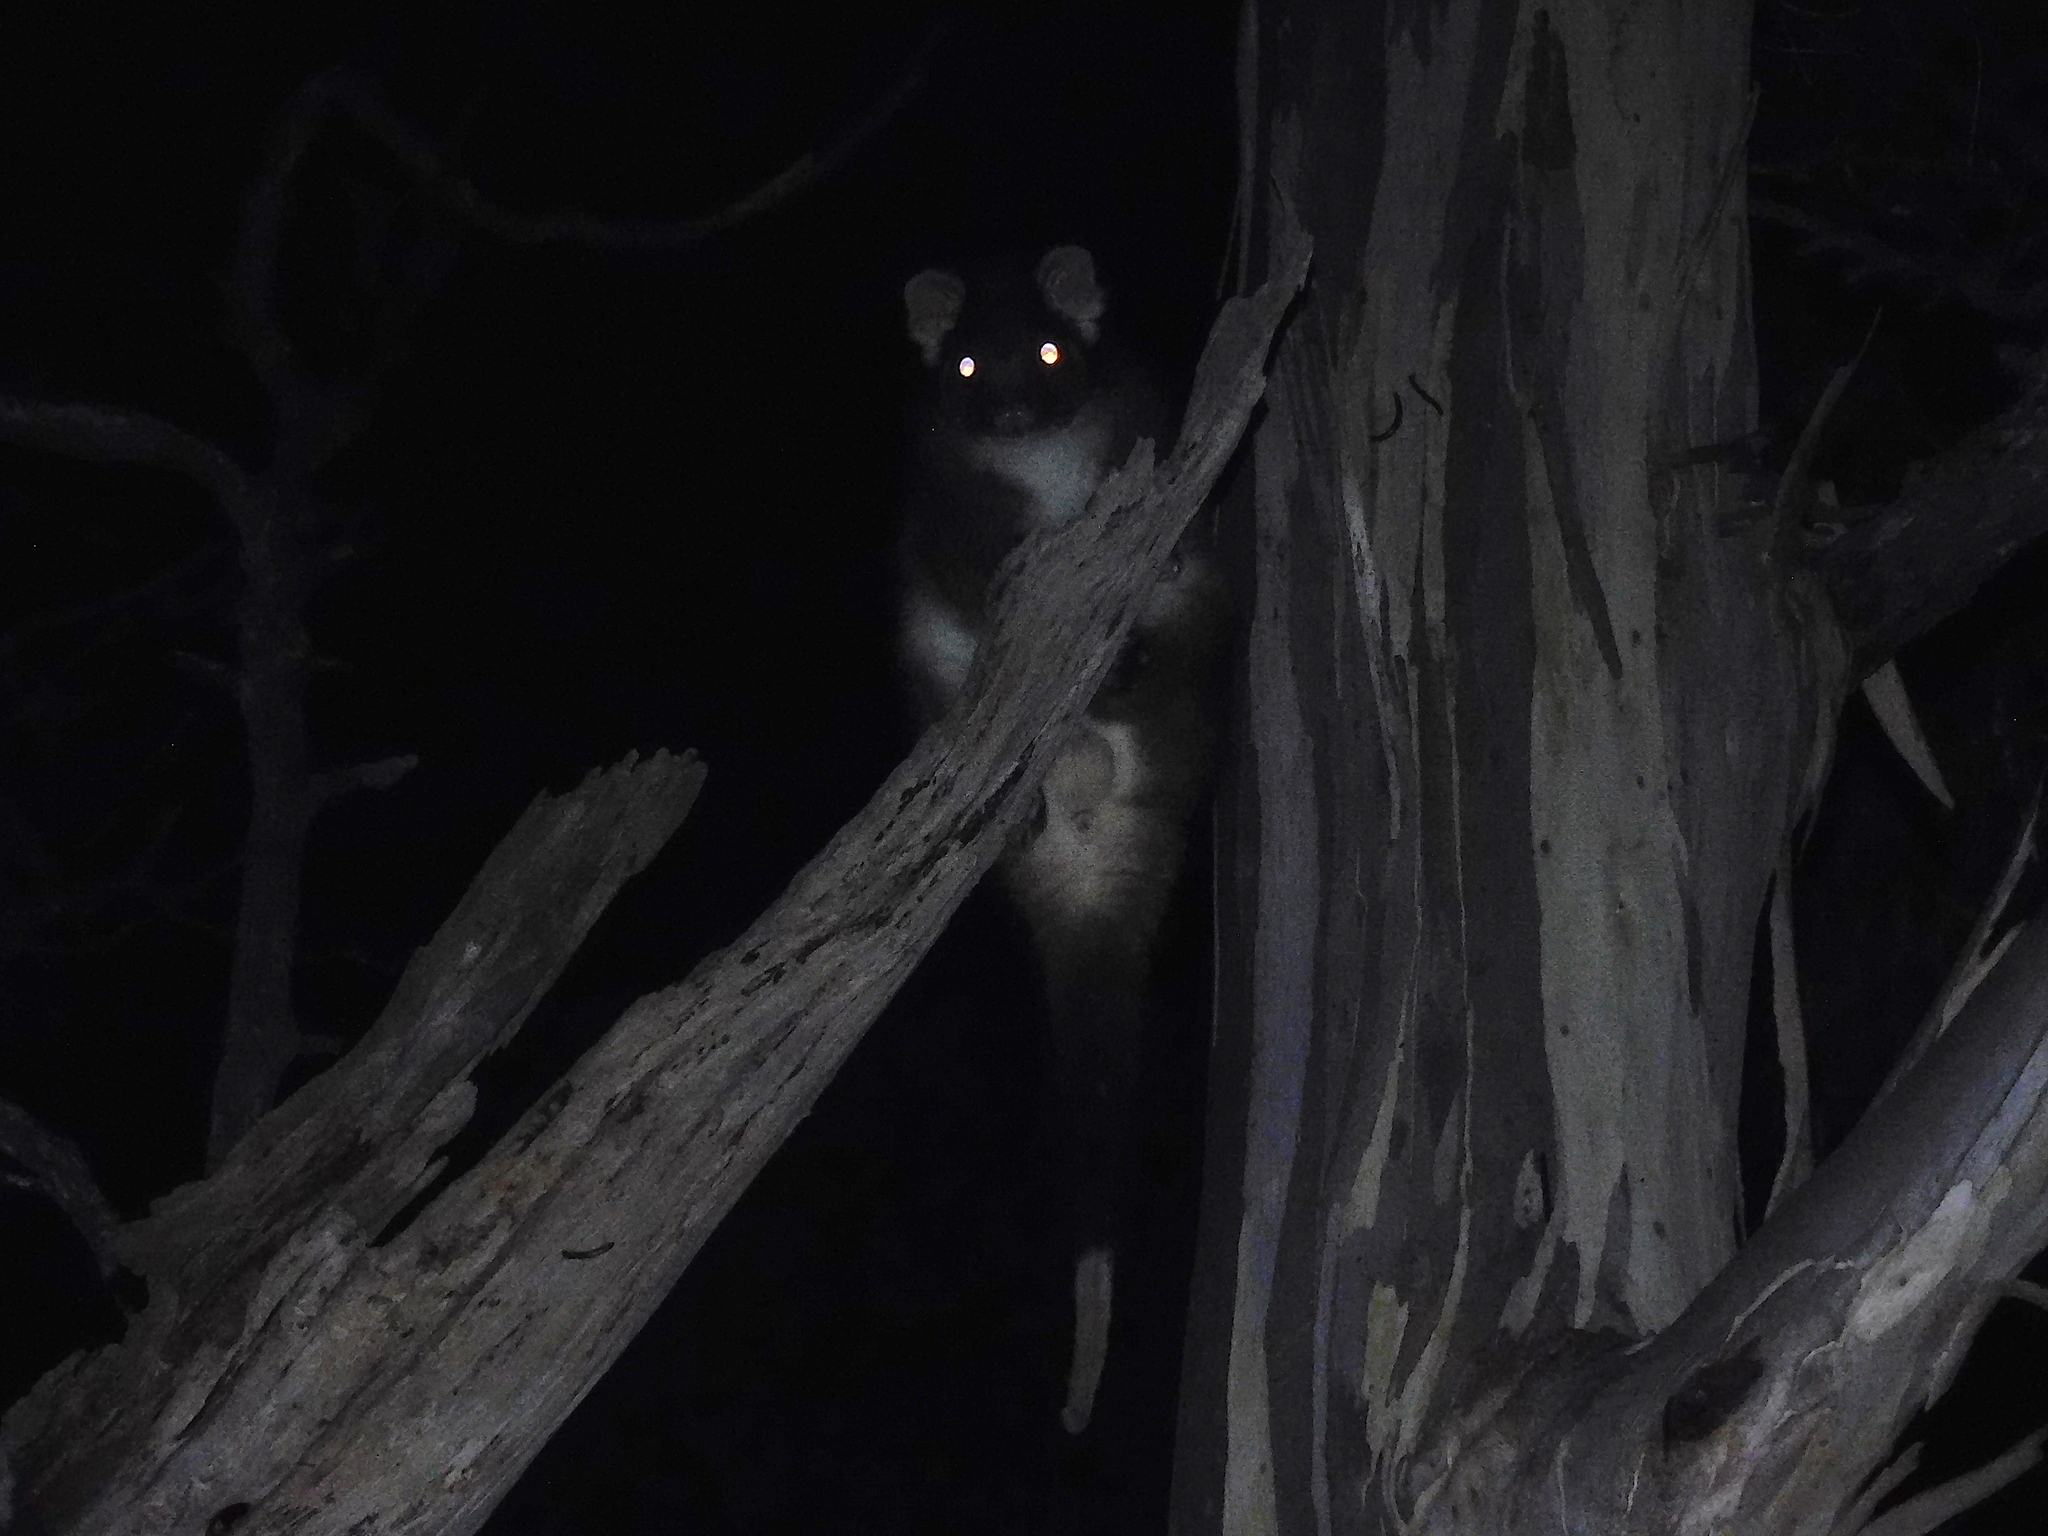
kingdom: Animalia
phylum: Chordata
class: Mammalia
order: Diprotodontia
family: Pseudocheiridae
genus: Pseudocheirus
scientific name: Pseudocheirus peregrinus
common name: Common ringtail possum
